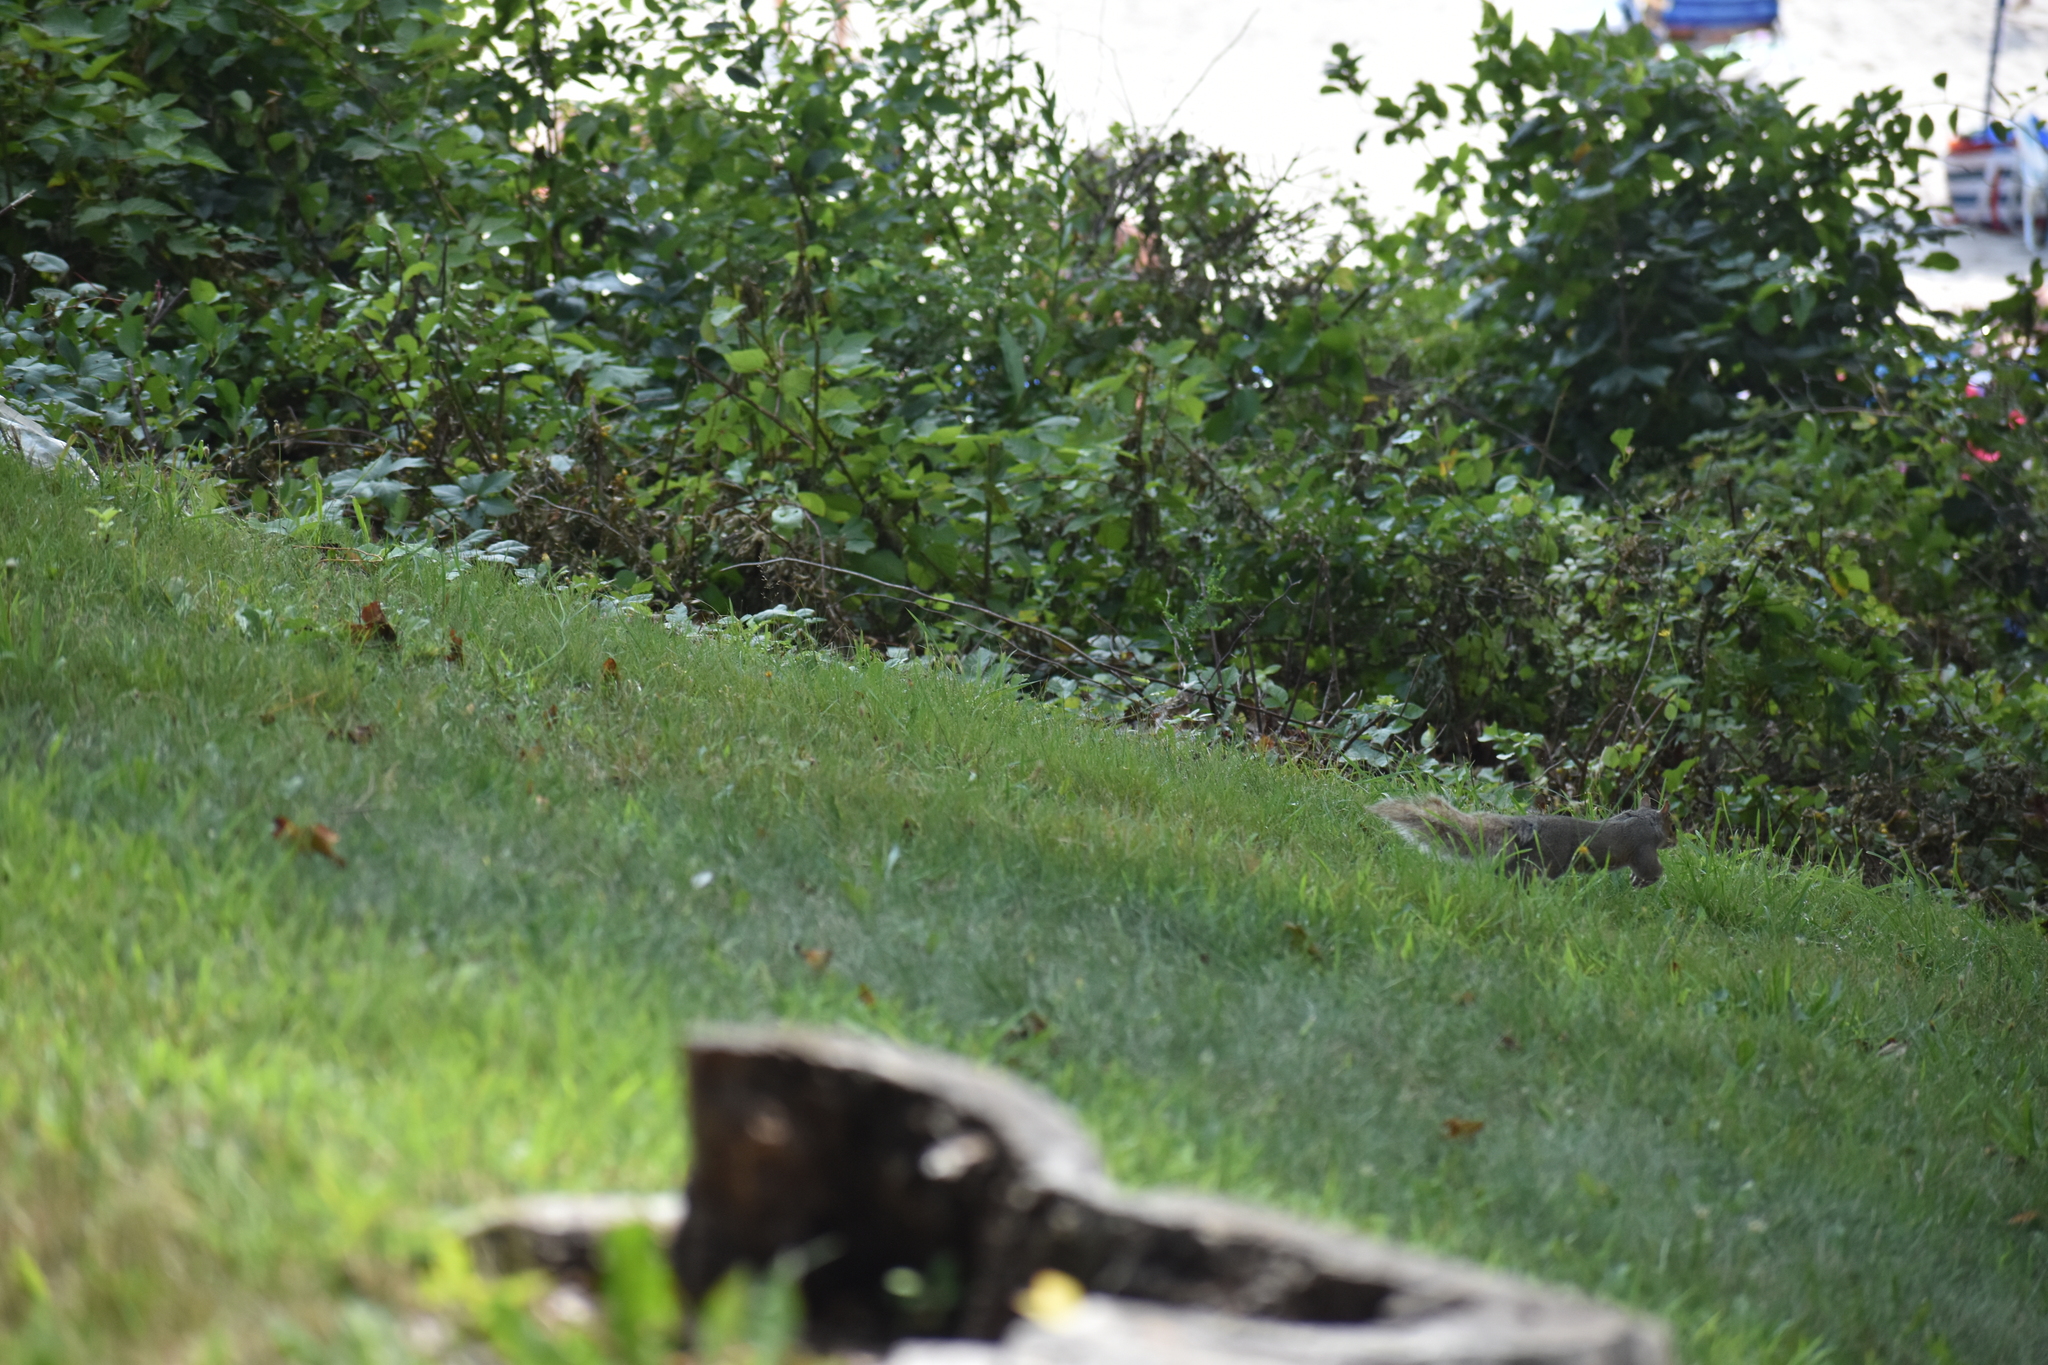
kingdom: Animalia
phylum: Chordata
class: Mammalia
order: Rodentia
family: Sciuridae
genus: Sciurus
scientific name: Sciurus carolinensis
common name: Eastern gray squirrel
